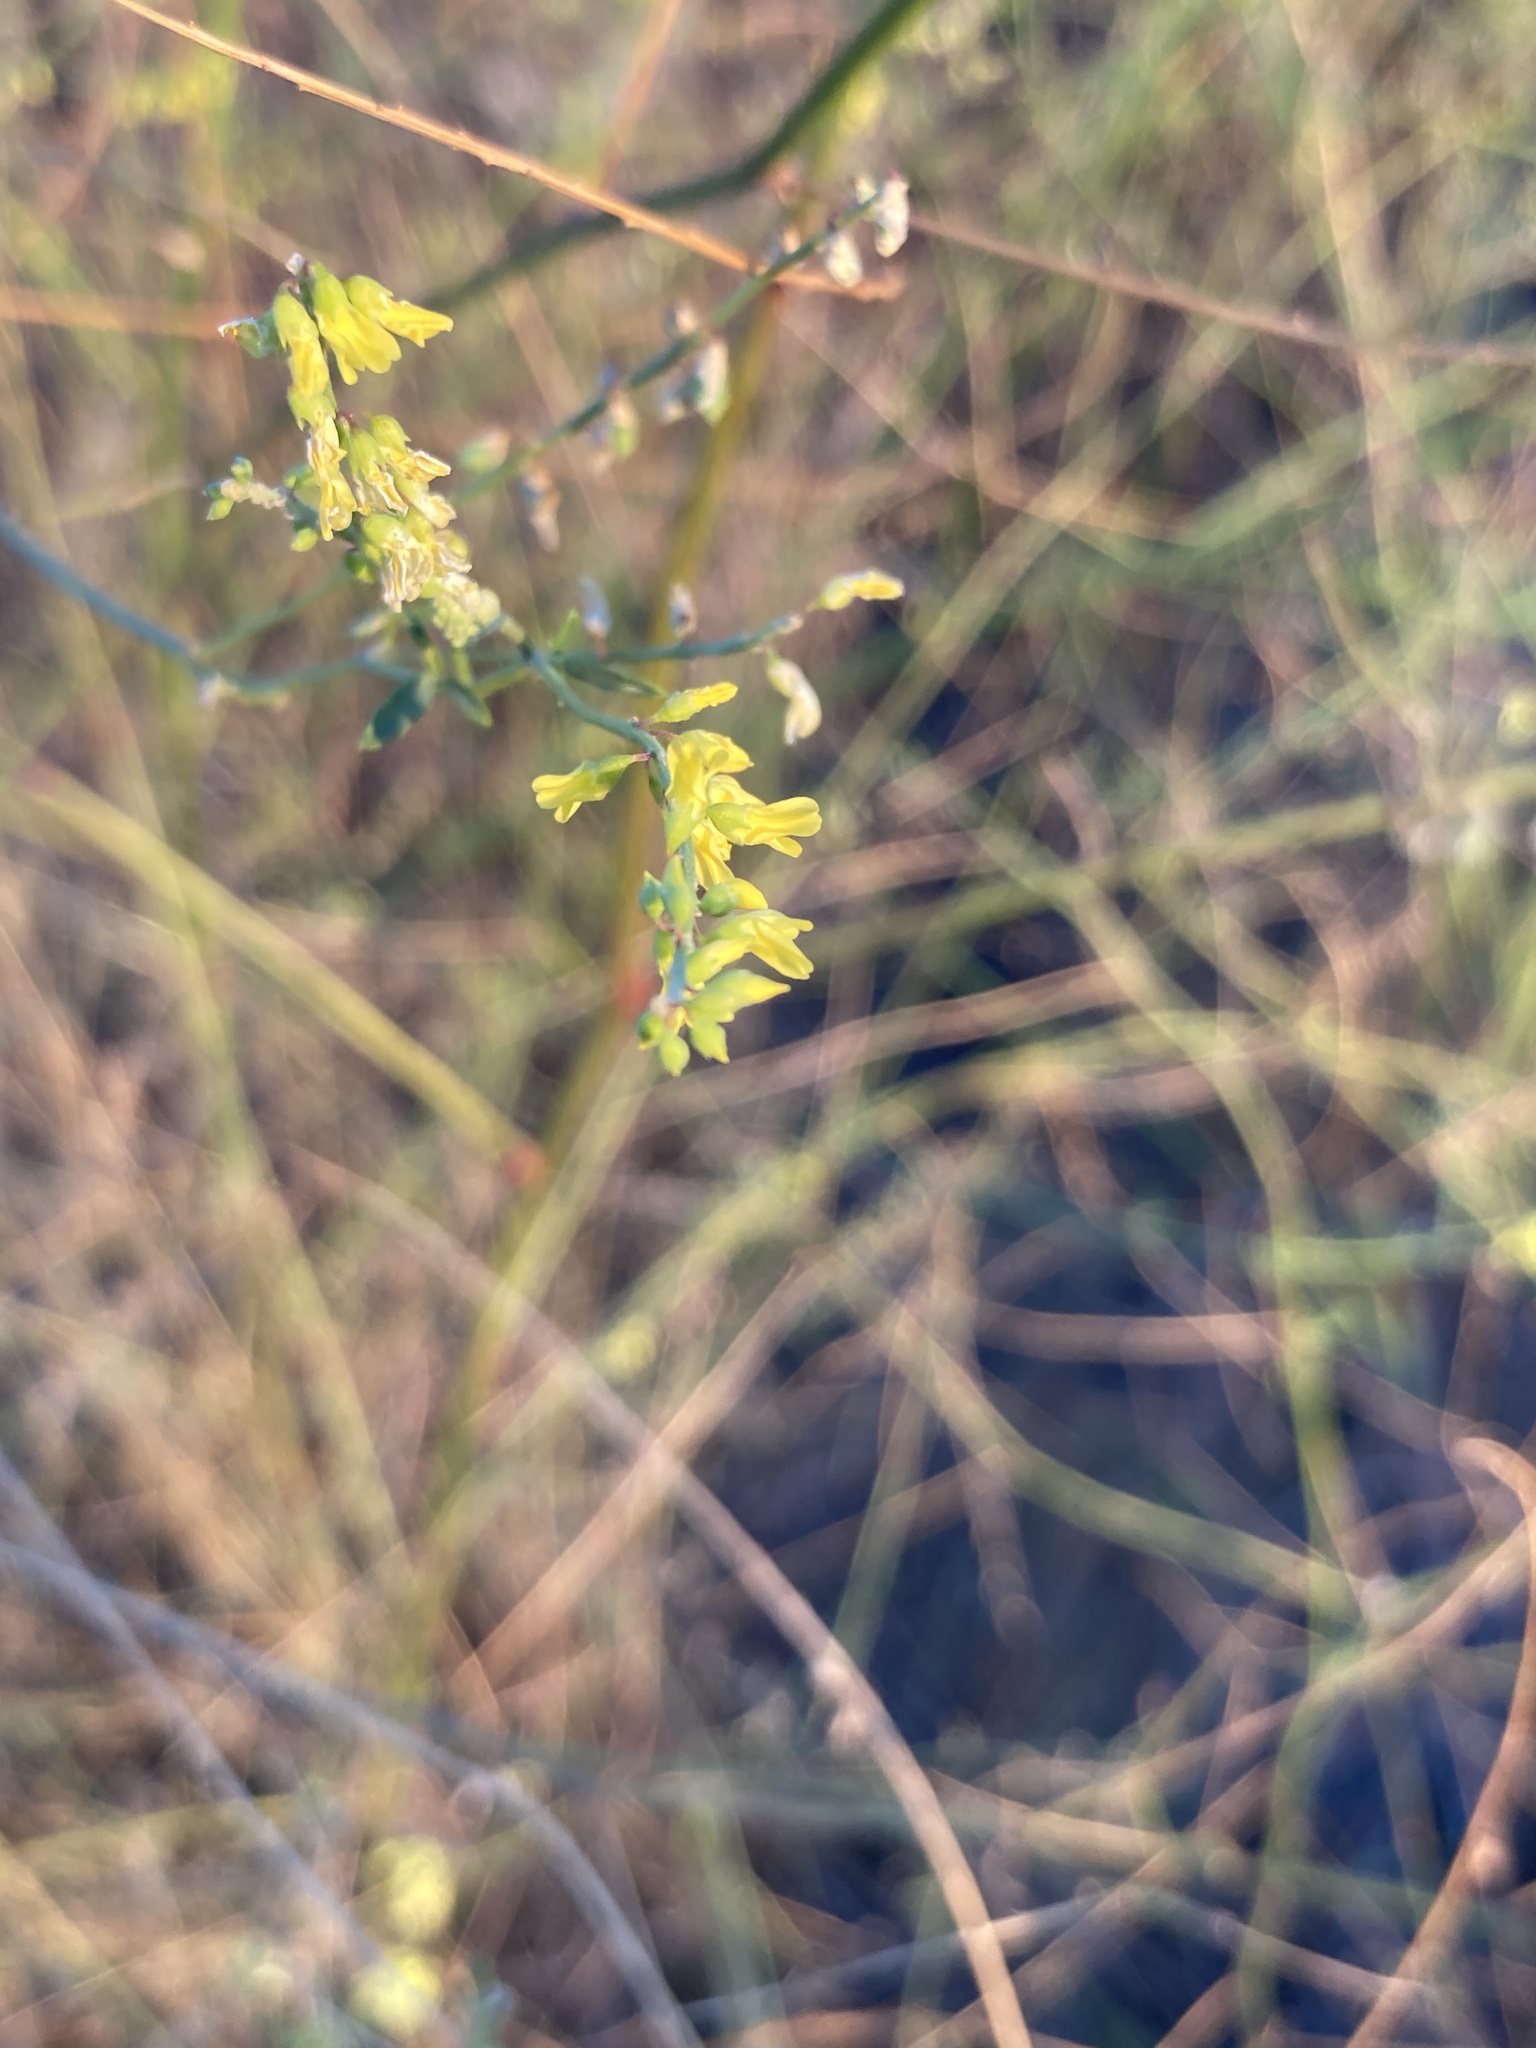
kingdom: Plantae
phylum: Tracheophyta
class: Magnoliopsida
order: Fabales
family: Fabaceae
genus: Melilotus
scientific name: Melilotus officinalis
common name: Sweetclover
